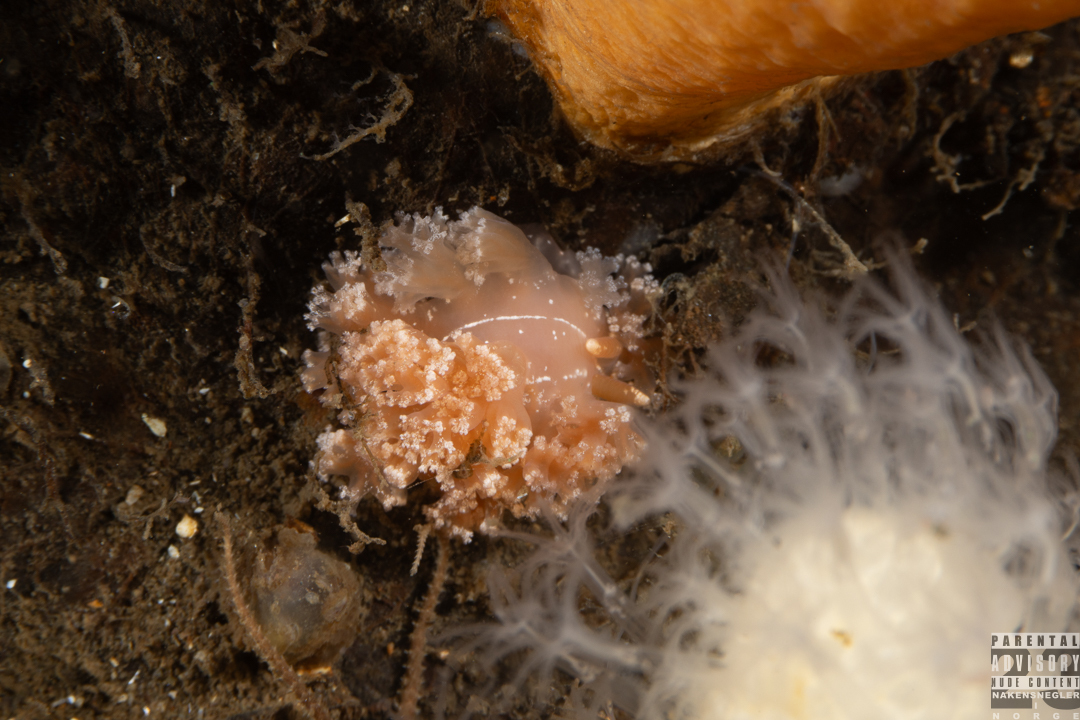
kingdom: Animalia
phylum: Mollusca
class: Gastropoda
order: Nudibranchia
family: Heroidae
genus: Hero
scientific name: Hero formosa
